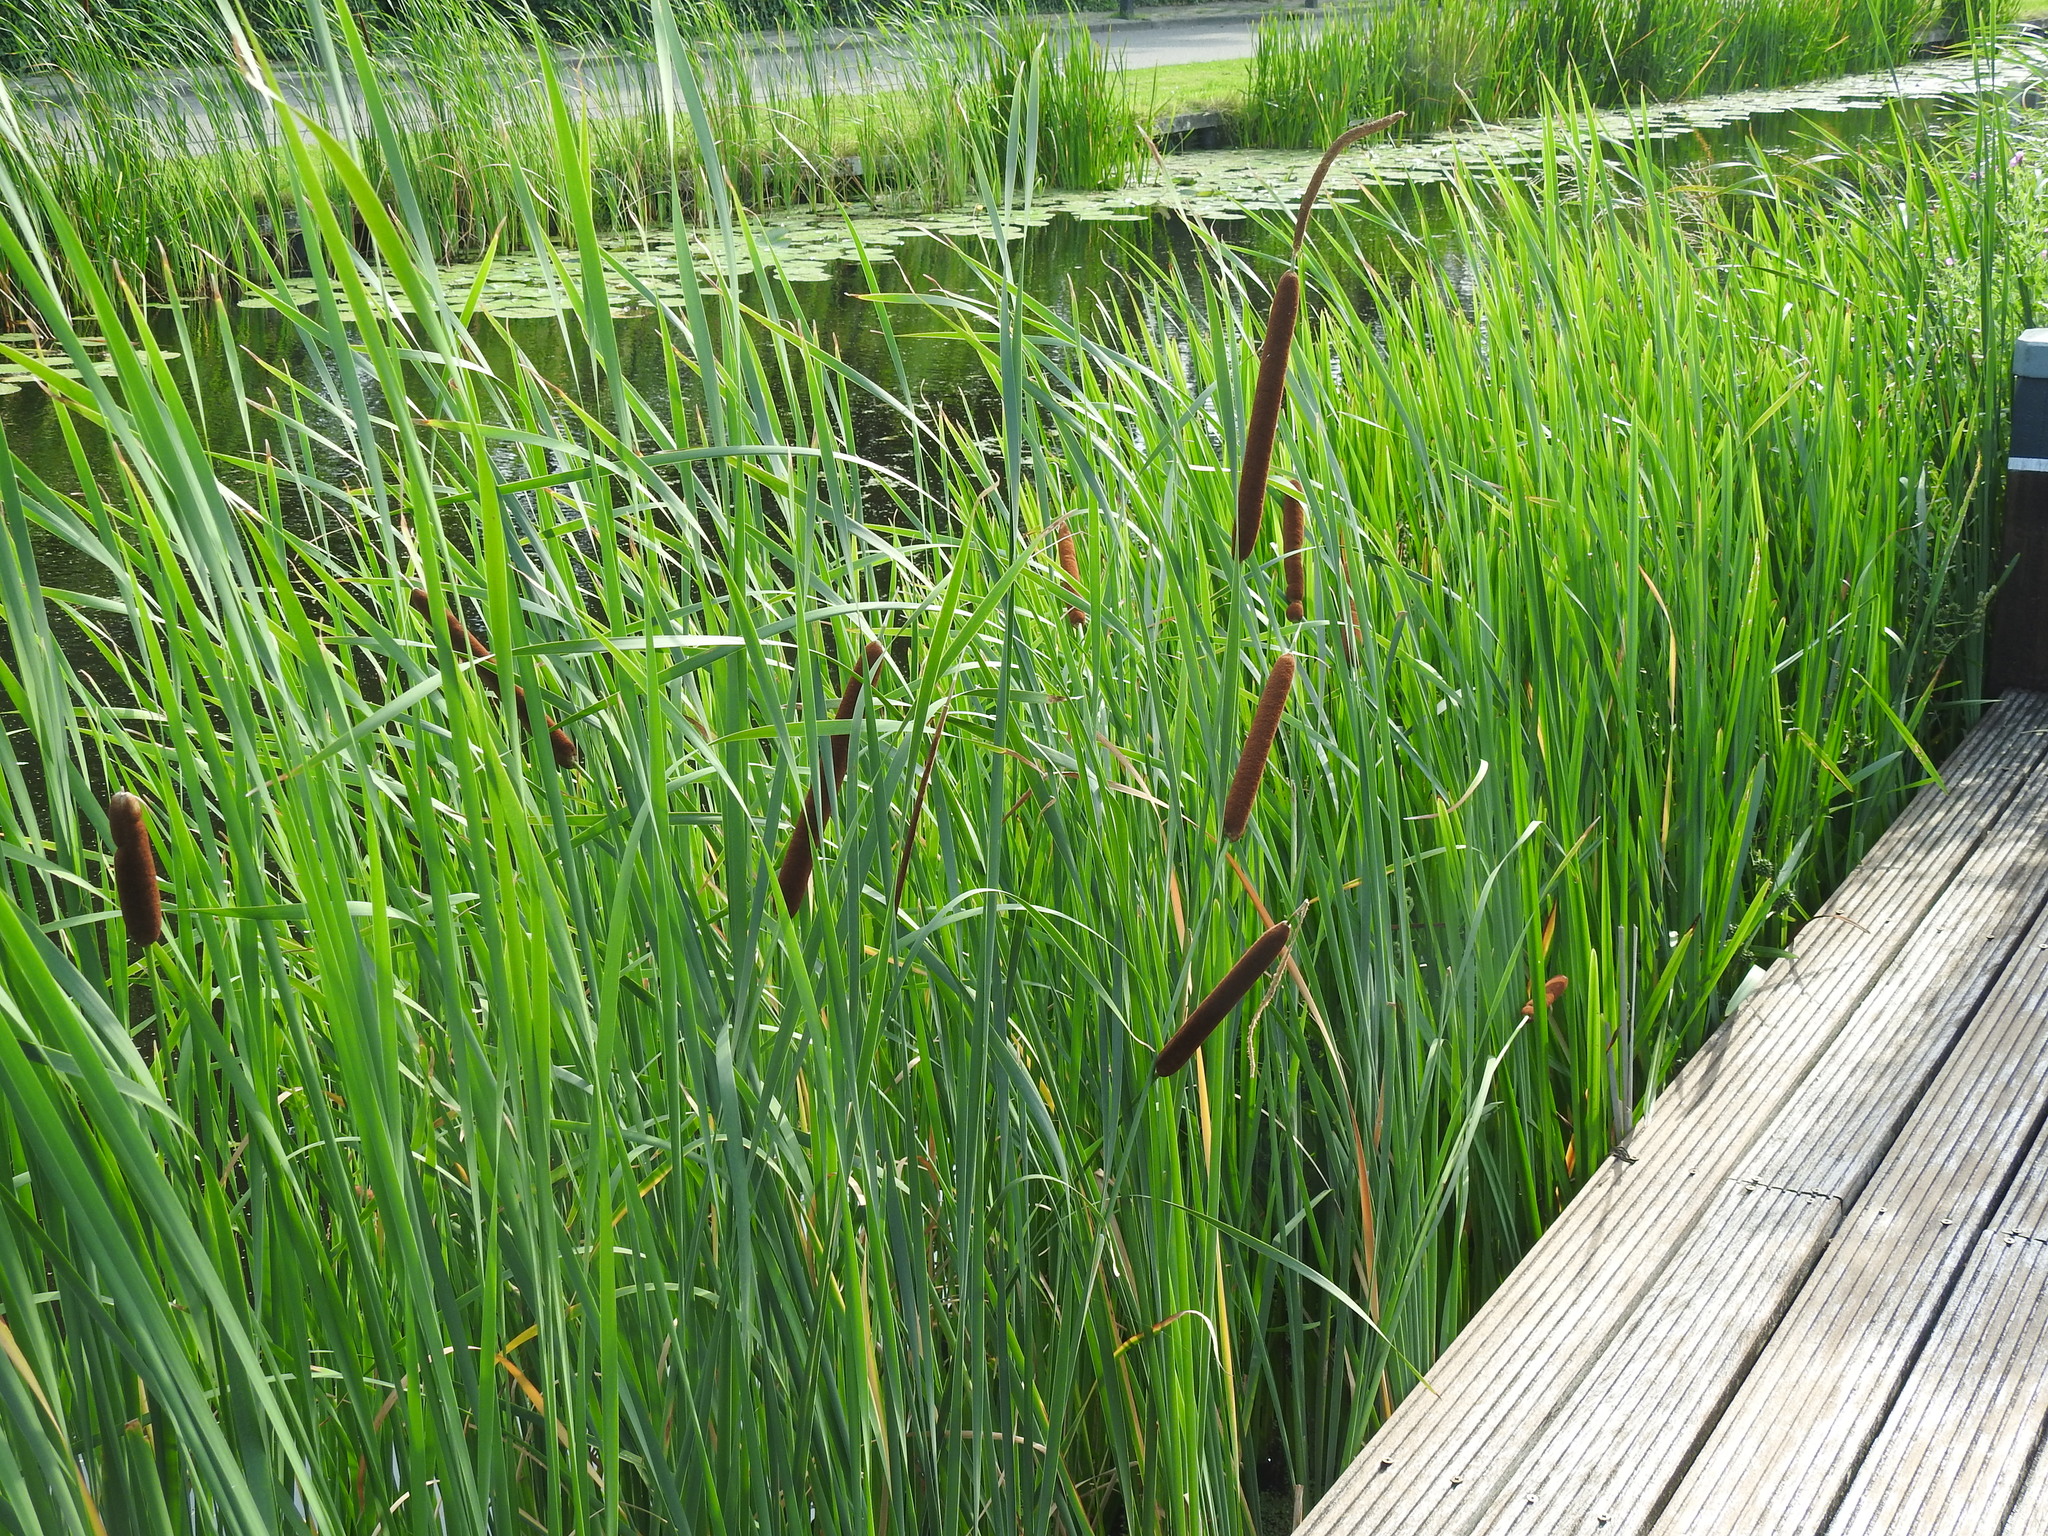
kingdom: Plantae
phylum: Tracheophyta
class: Liliopsida
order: Poales
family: Typhaceae
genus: Typha
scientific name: Typha angustifolia
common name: Lesser bulrush
